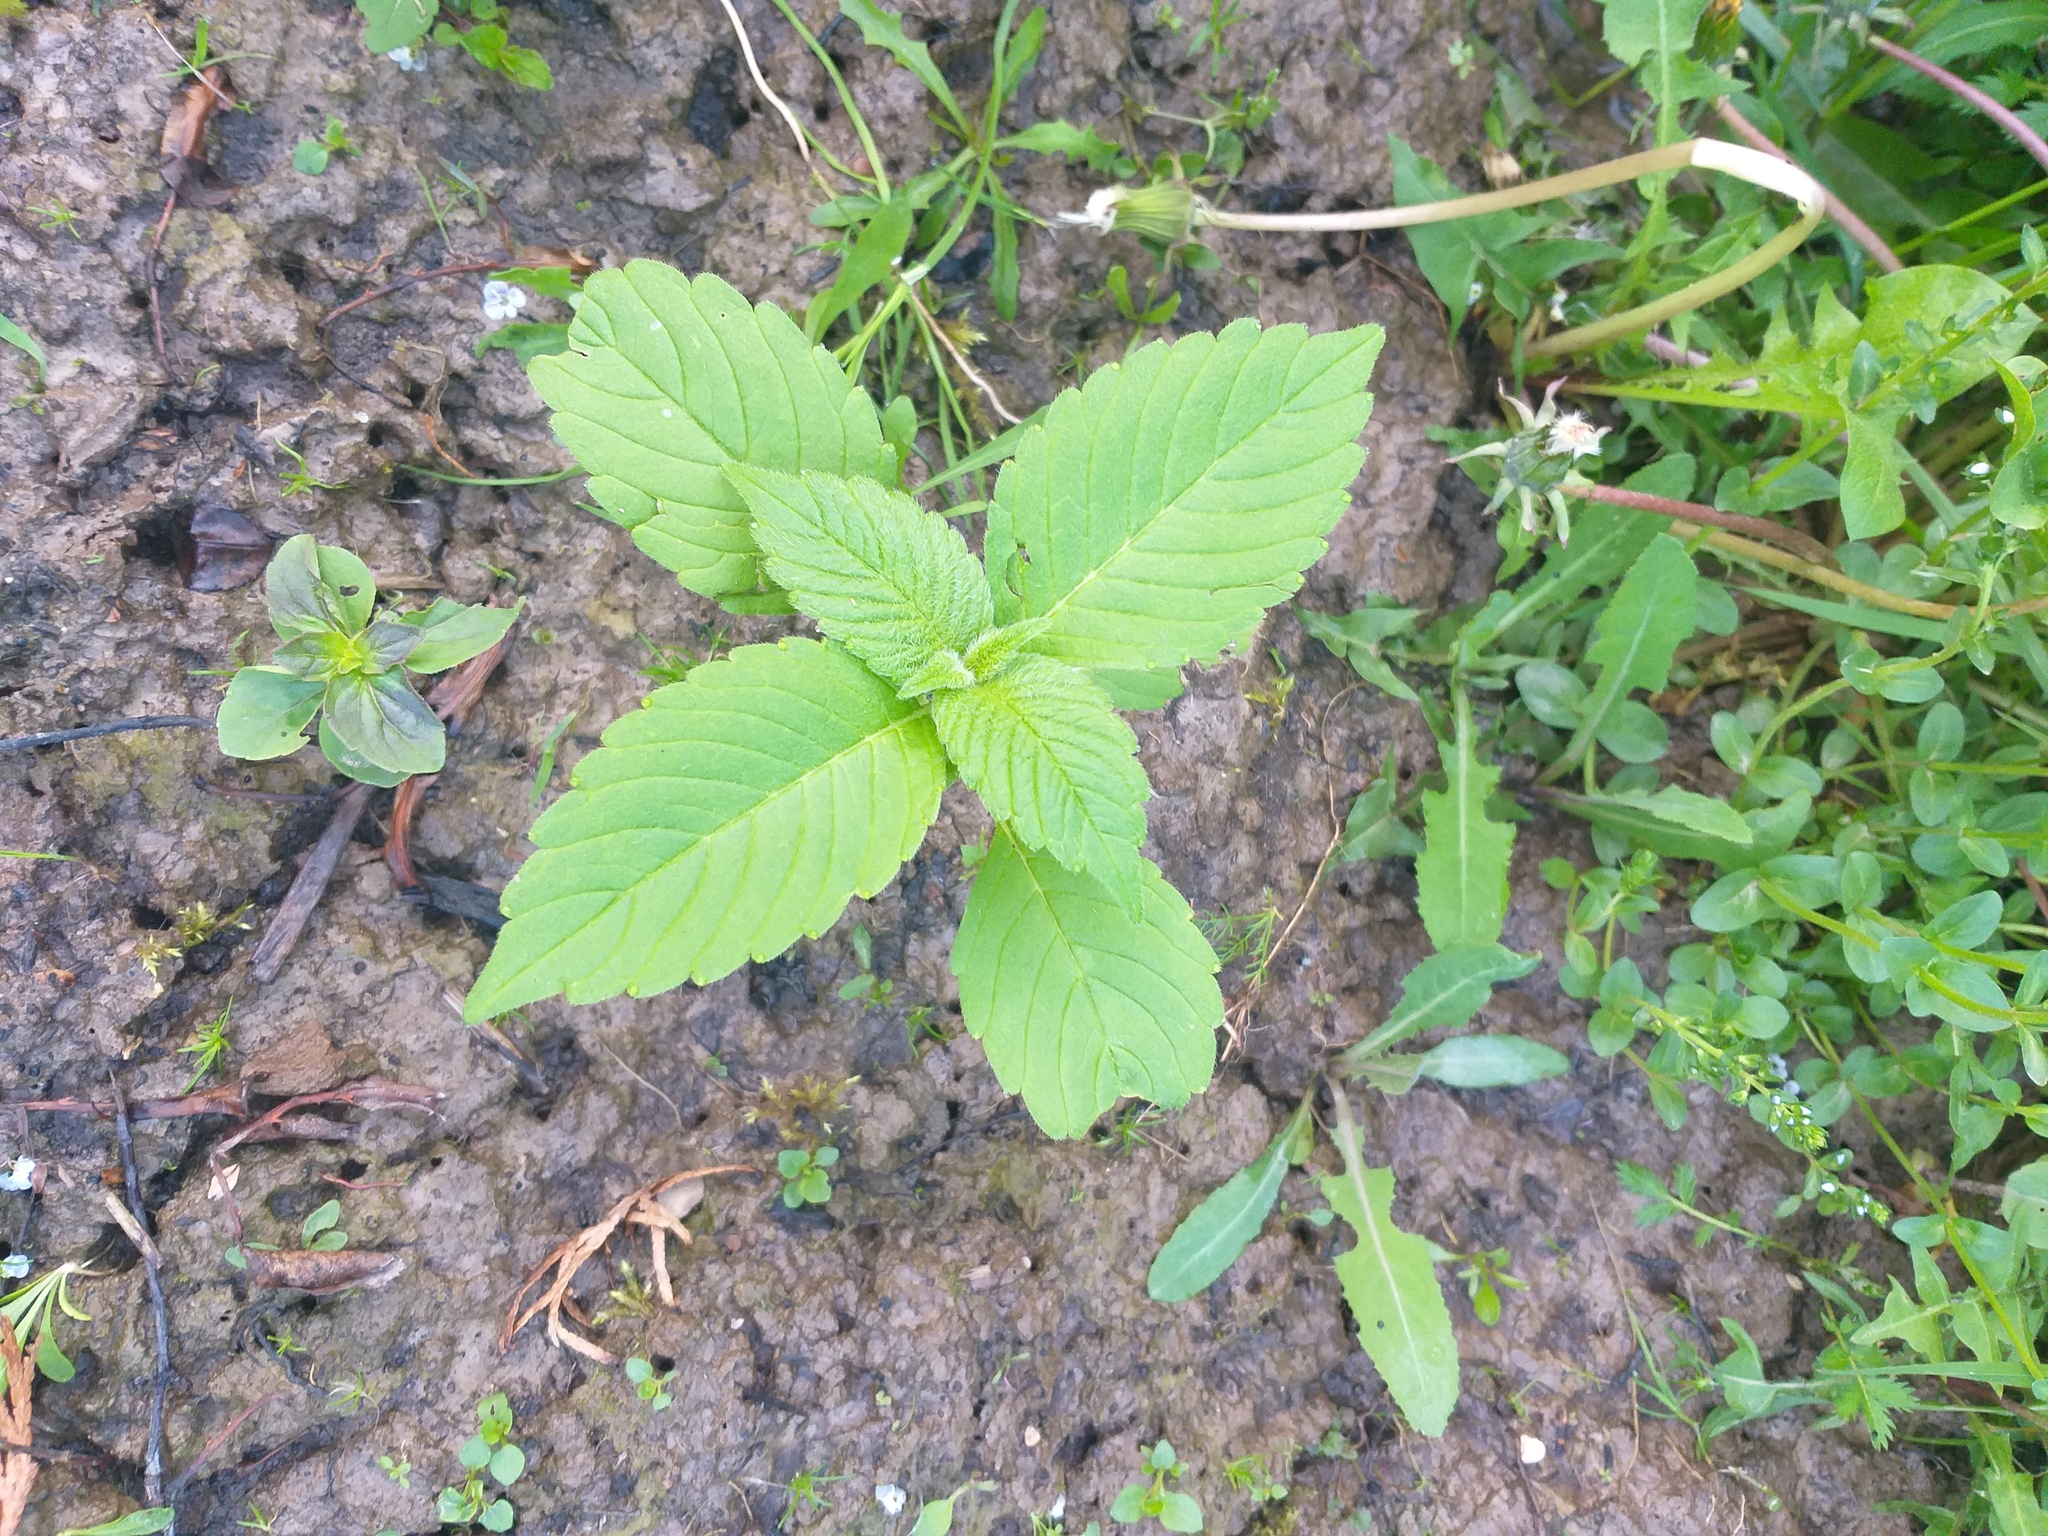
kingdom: Plantae
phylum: Tracheophyta
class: Magnoliopsida
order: Lamiales
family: Lamiaceae
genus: Galeopsis
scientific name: Galeopsis
